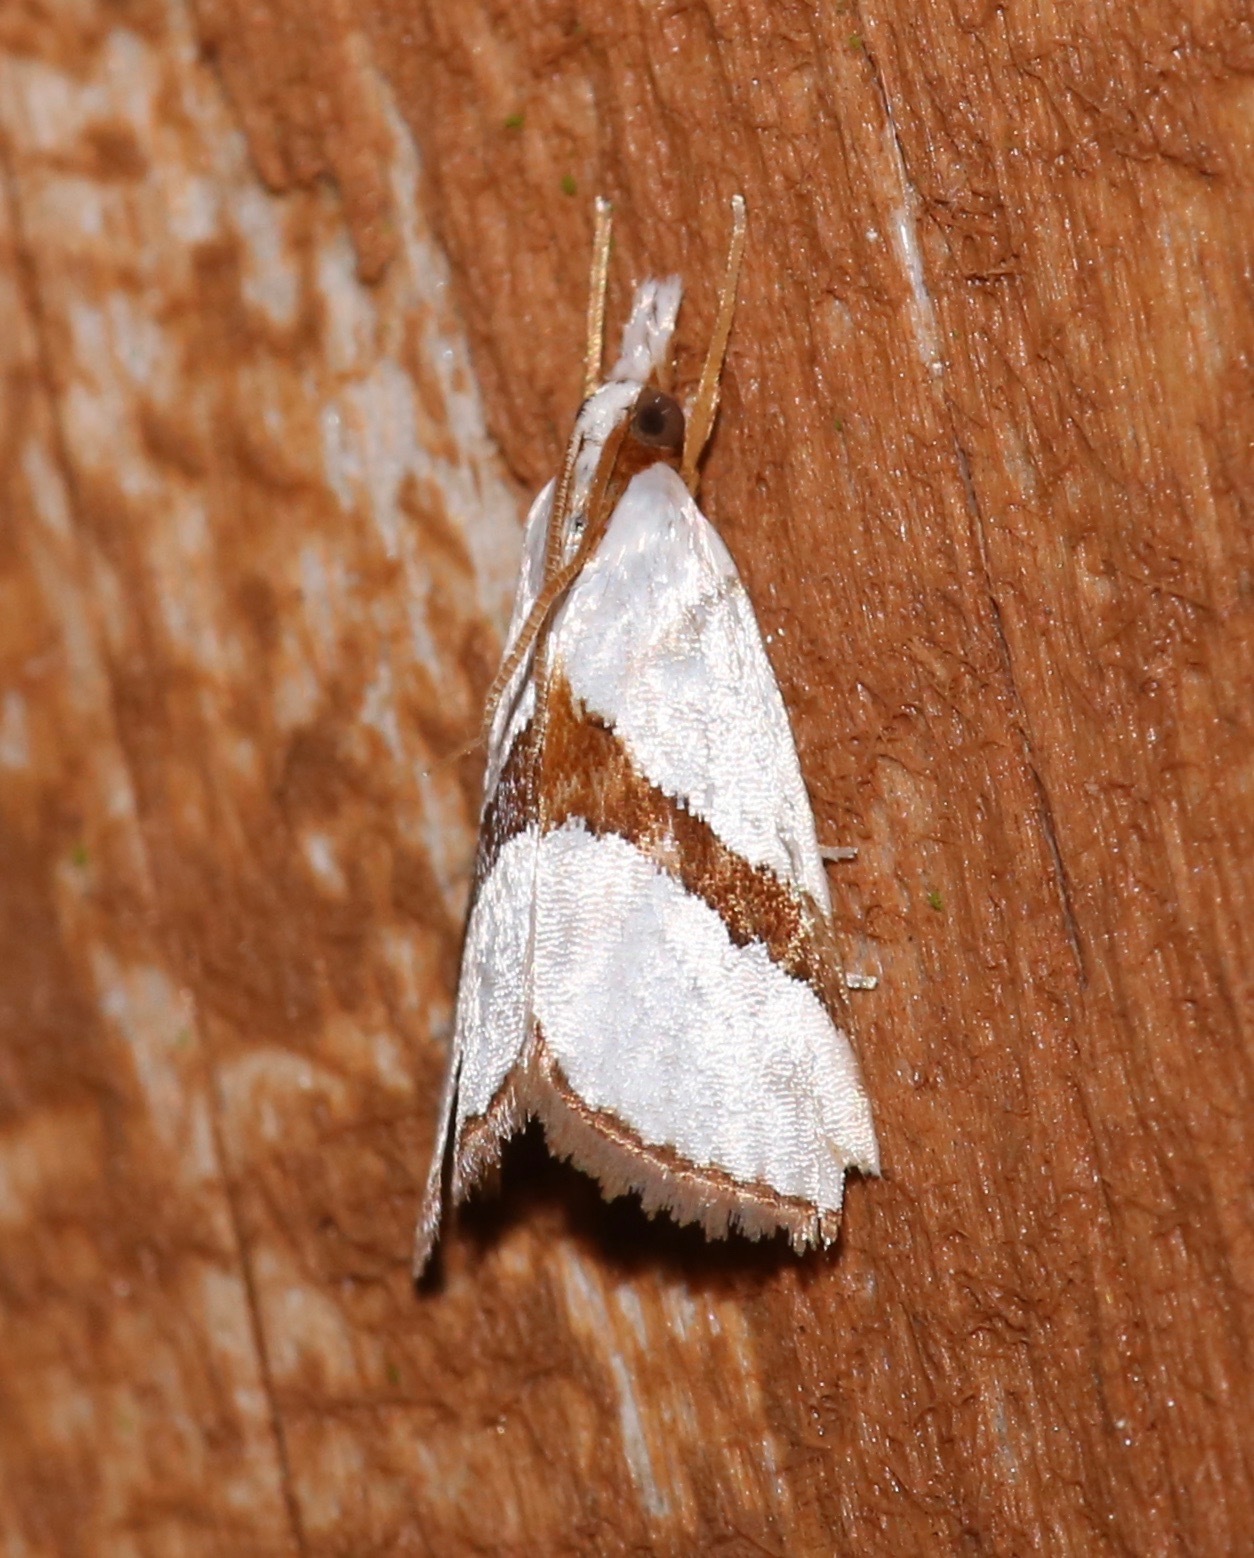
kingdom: Animalia
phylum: Arthropoda
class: Insecta
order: Lepidoptera
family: Crambidae
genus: Vaxi
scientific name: Vaxi critica
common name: Straight-lined vaxi moth
